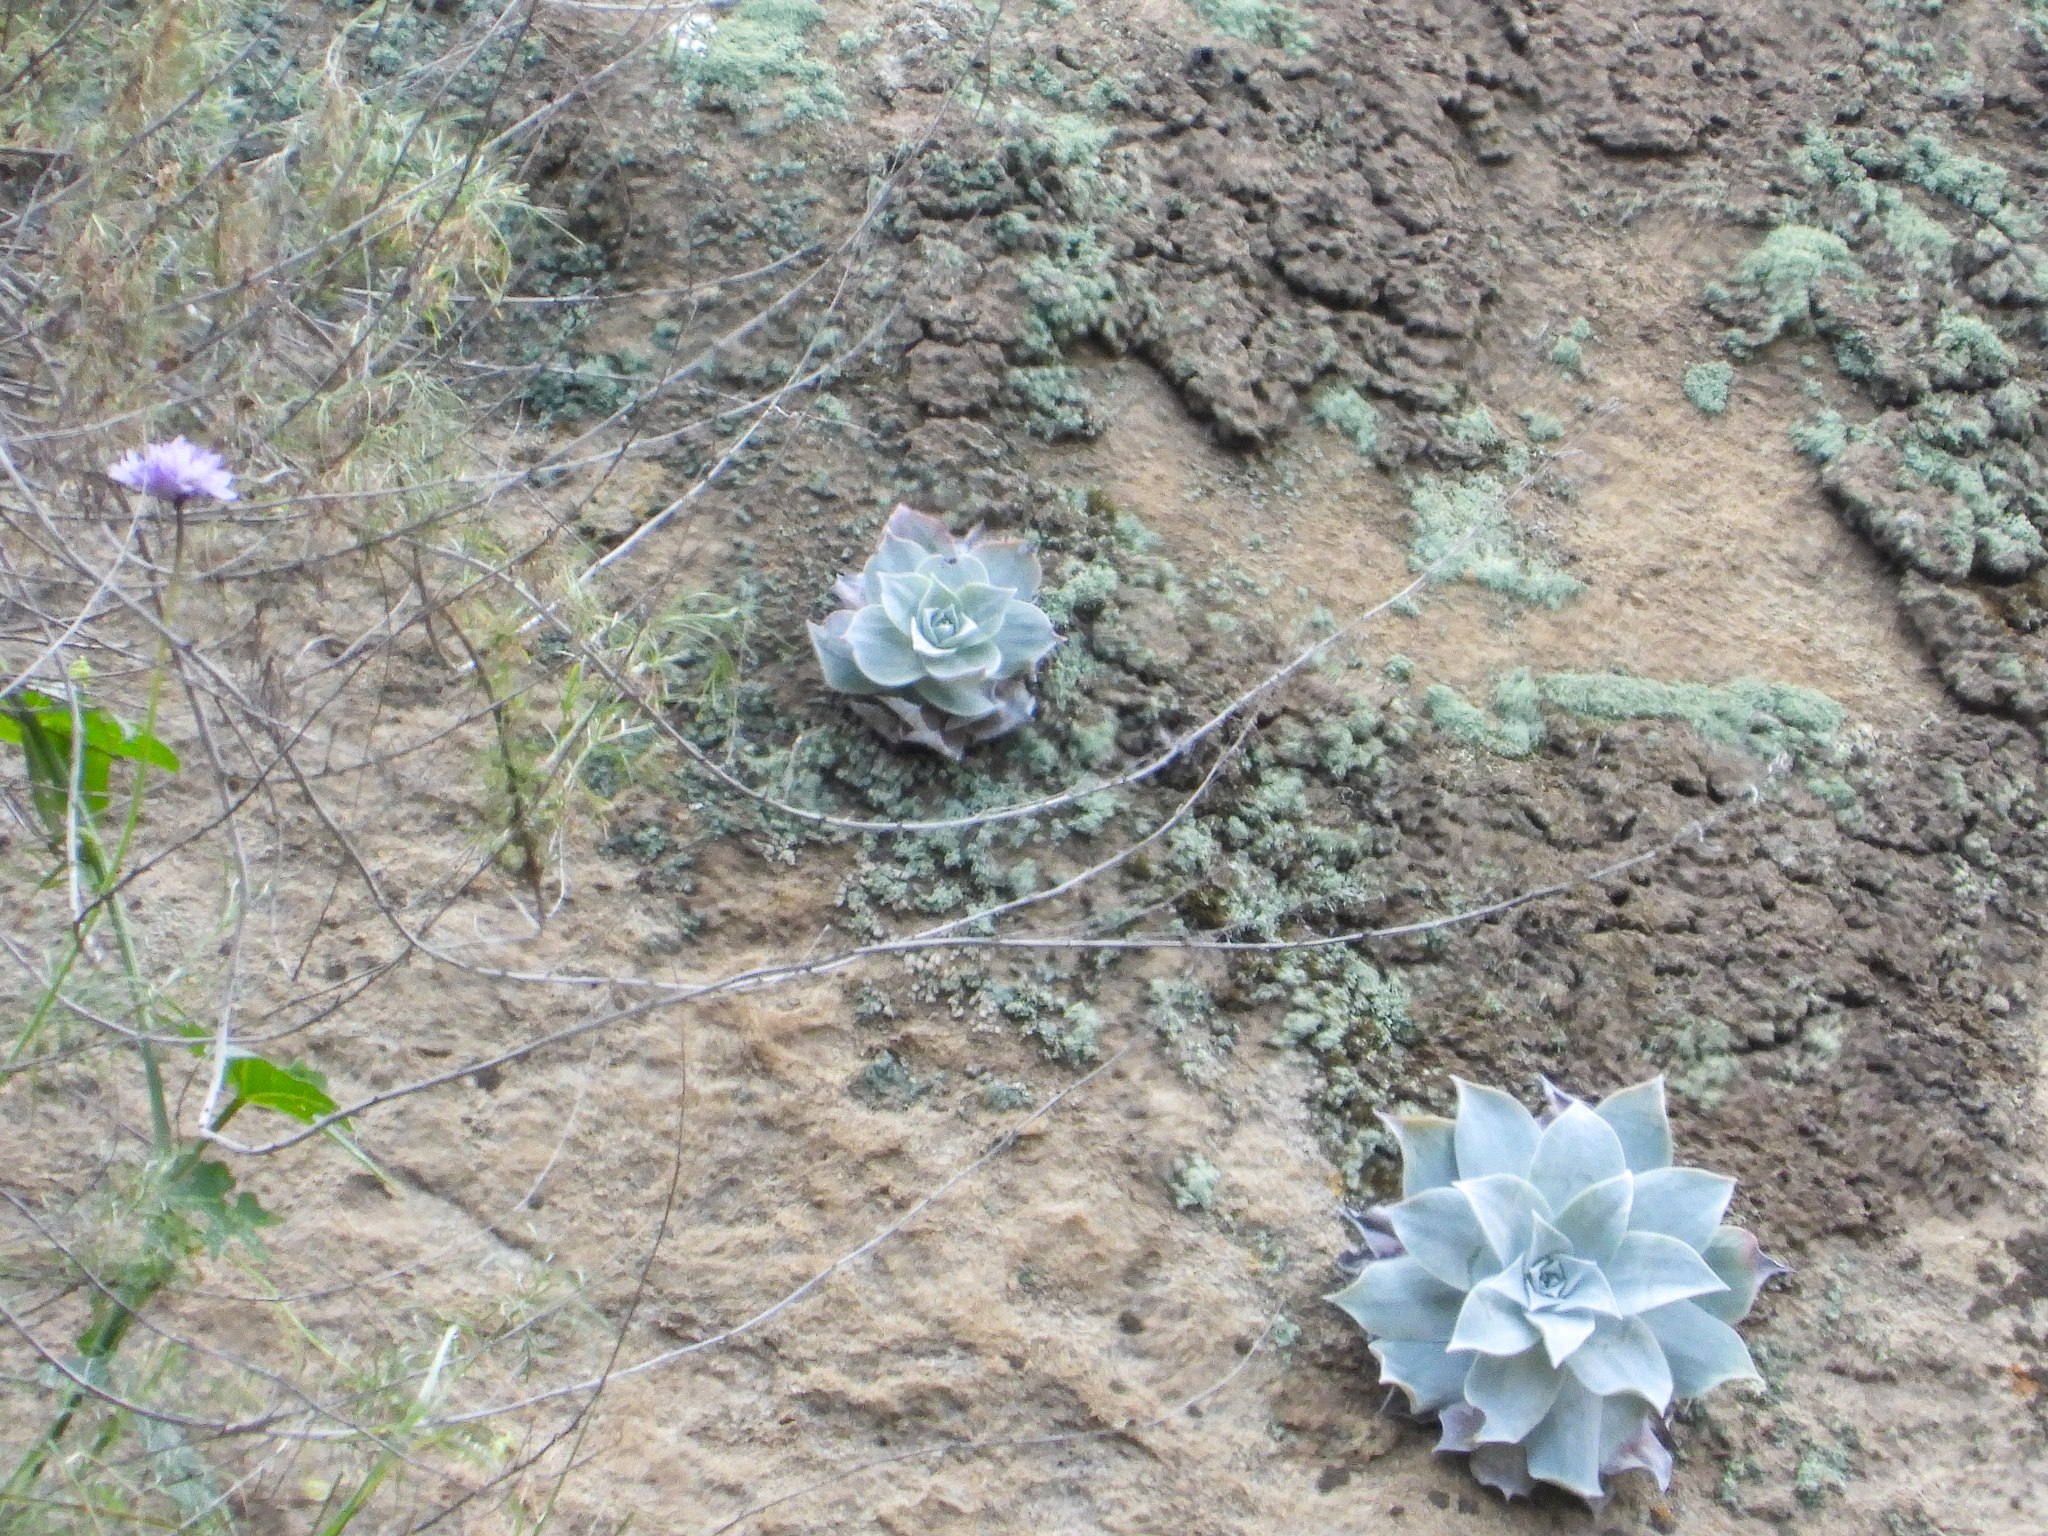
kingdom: Plantae
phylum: Tracheophyta
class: Magnoliopsida
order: Saxifragales
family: Crassulaceae
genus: Dudleya
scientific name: Dudleya pulverulenta
